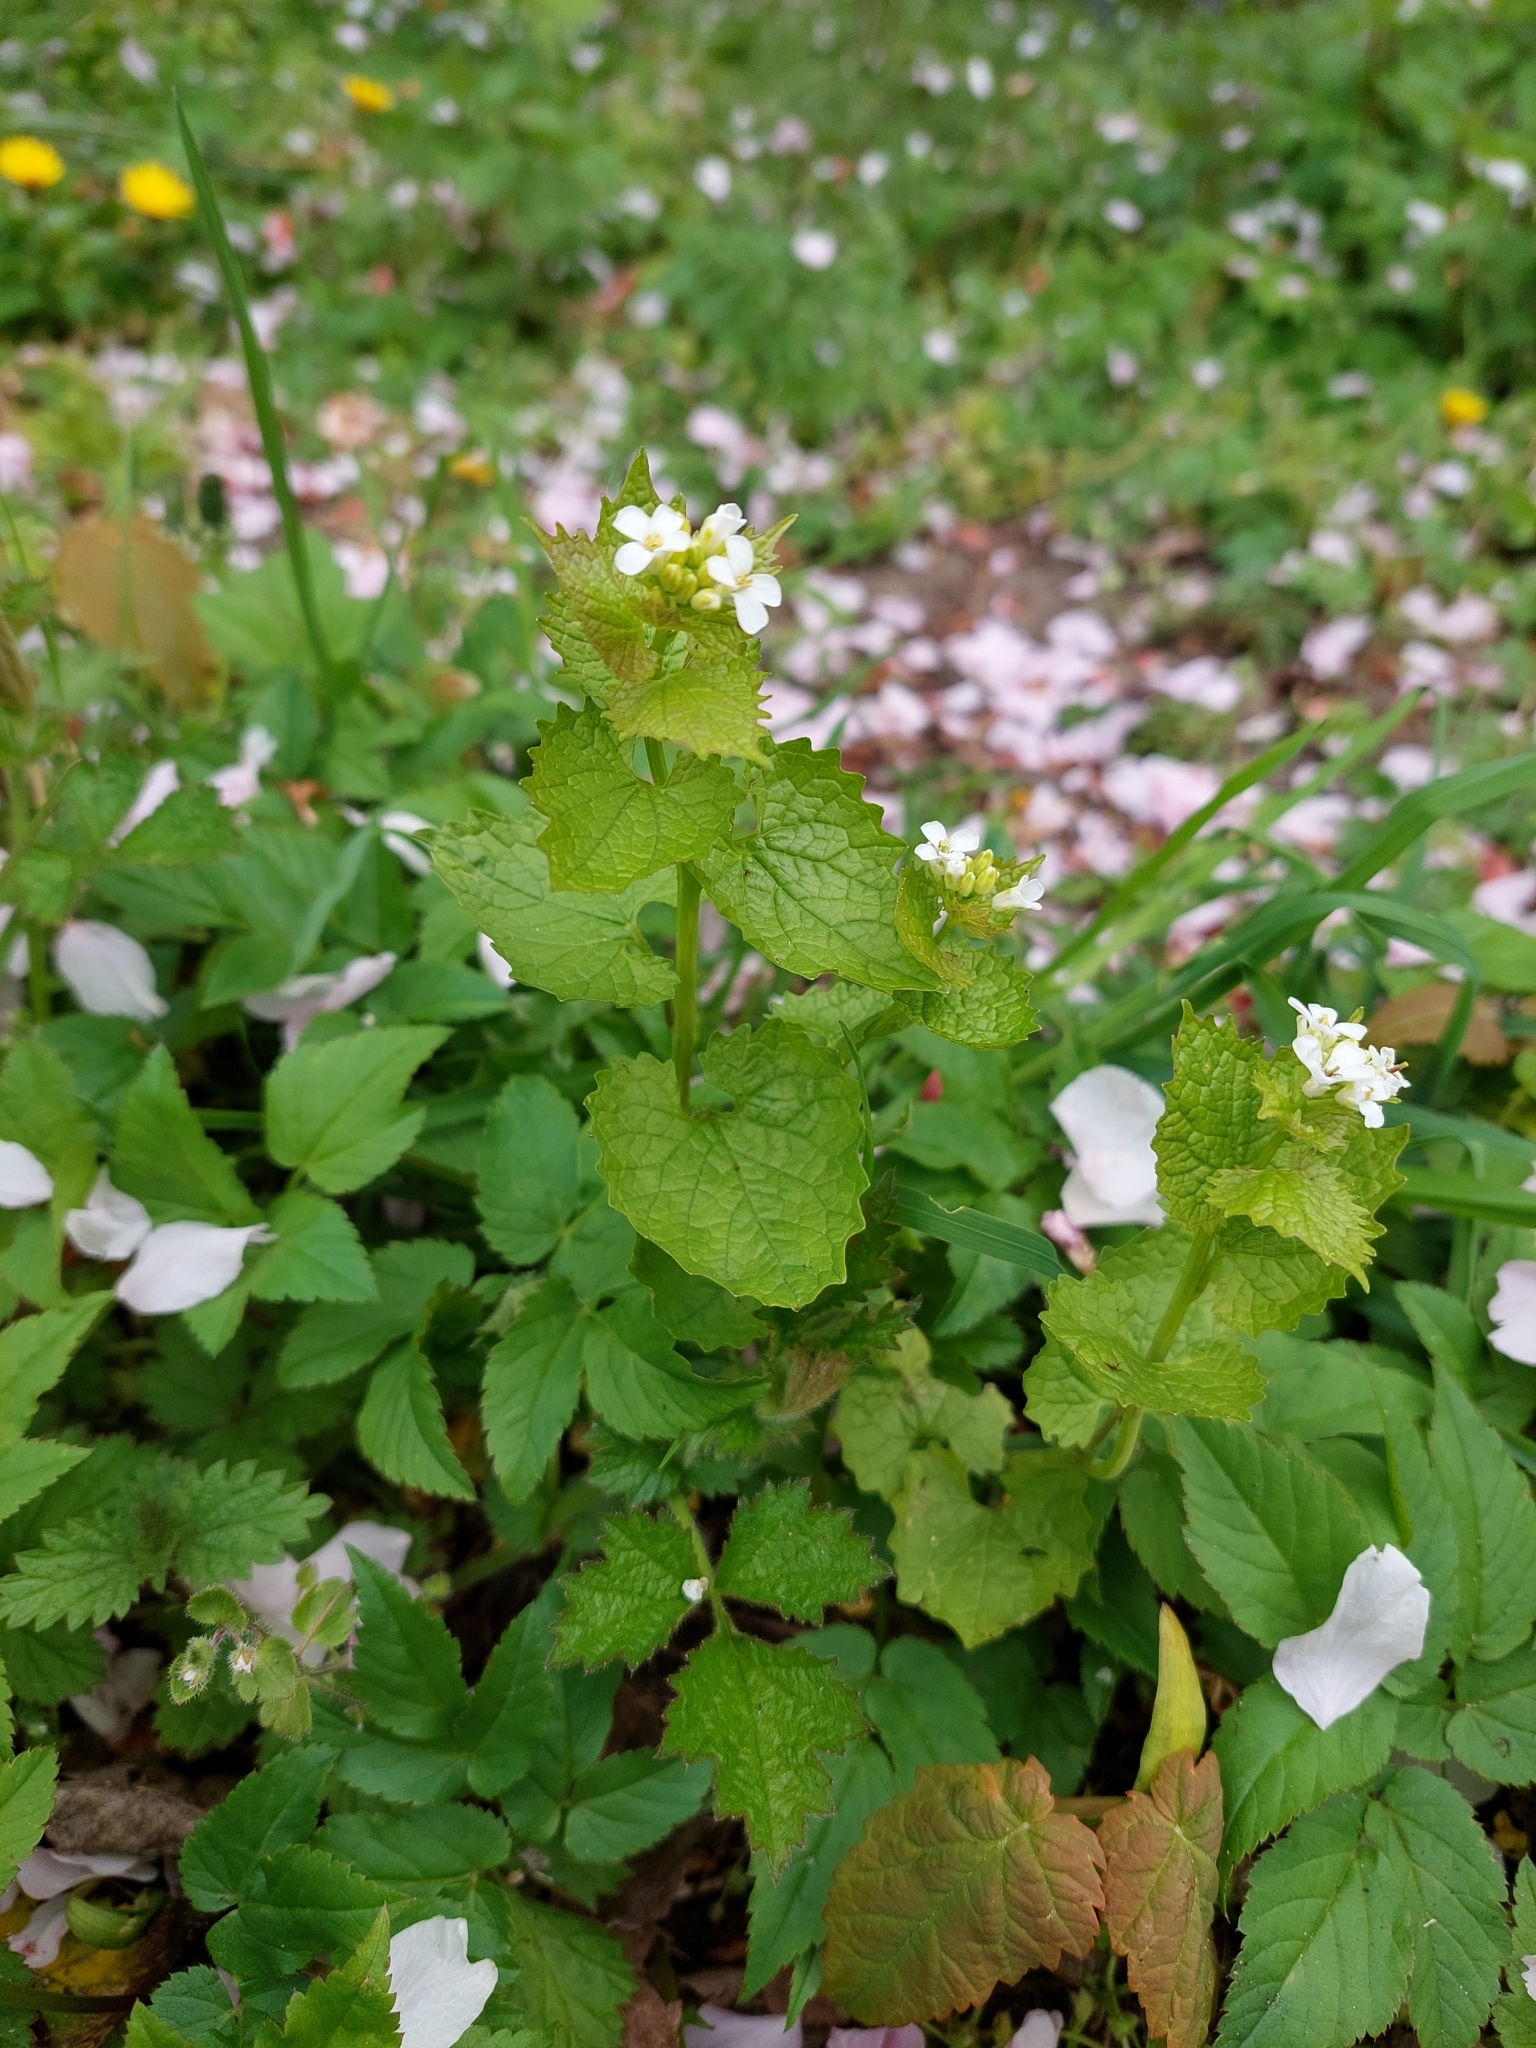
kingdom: Plantae
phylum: Tracheophyta
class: Magnoliopsida
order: Brassicales
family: Brassicaceae
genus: Alliaria
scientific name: Alliaria petiolata
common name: Garlic mustard
